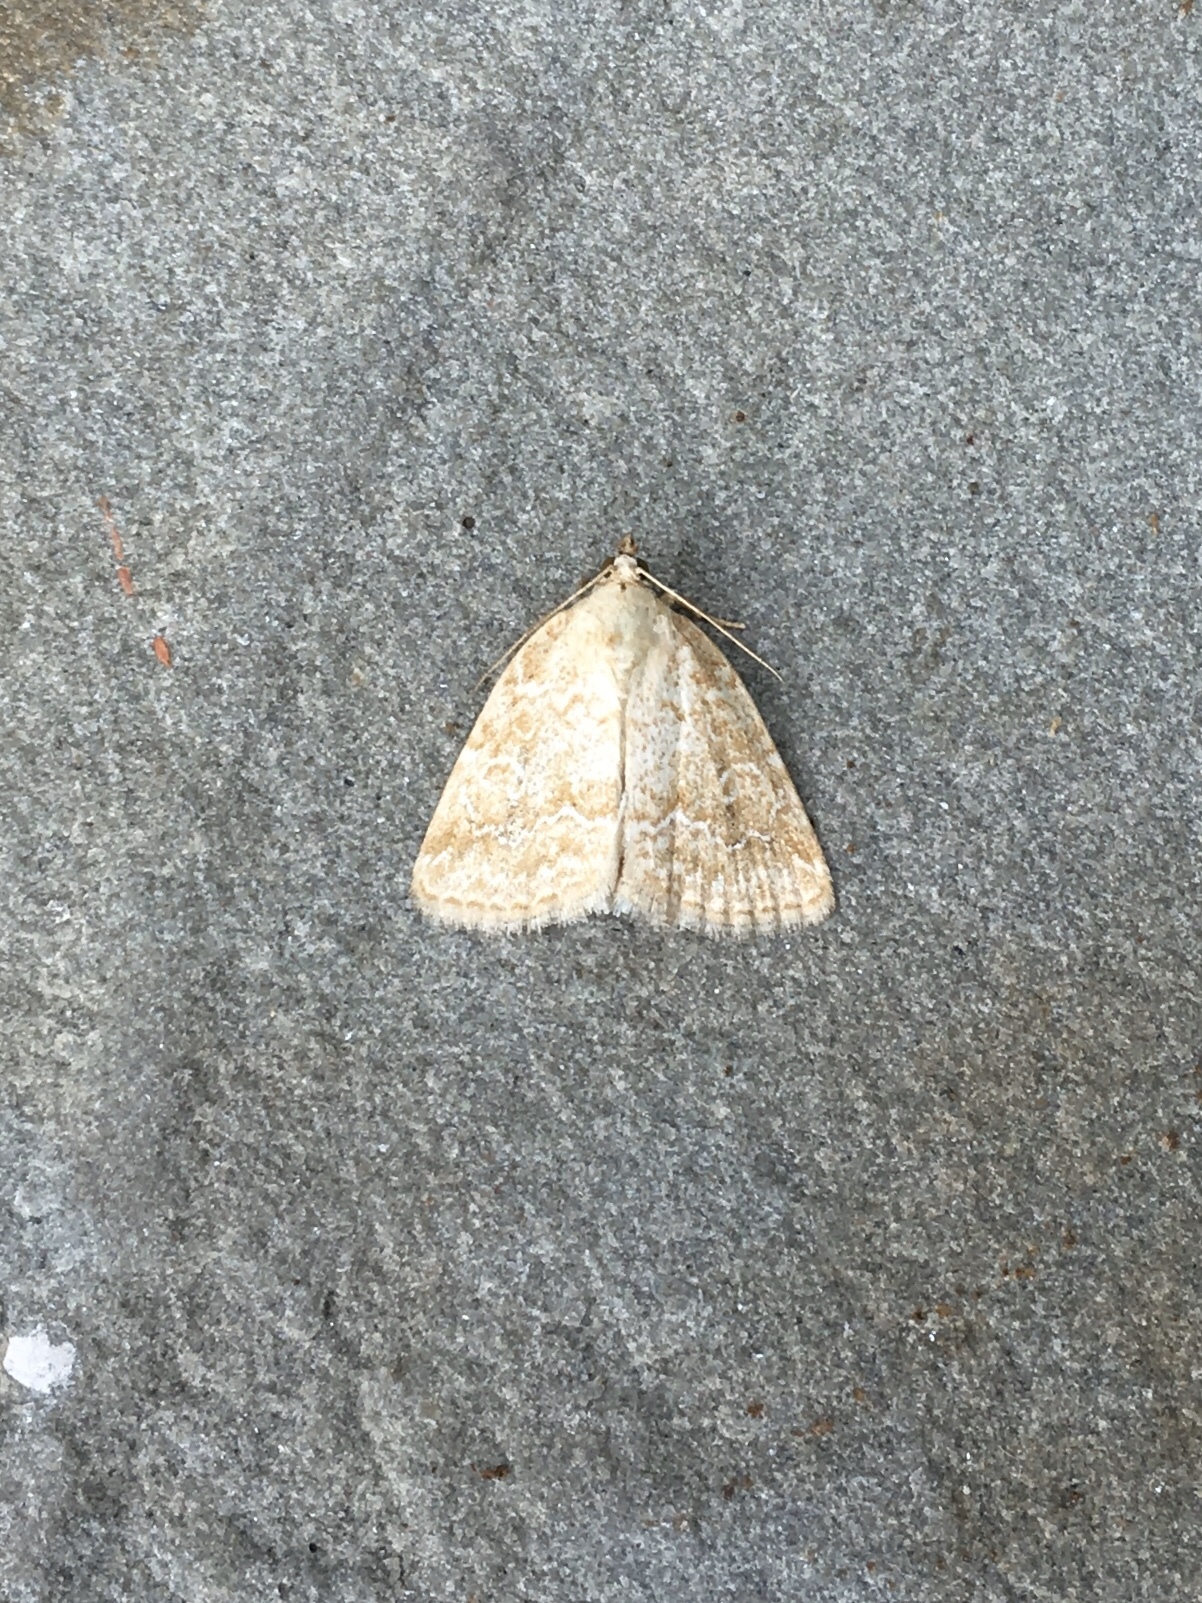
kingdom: Animalia
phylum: Arthropoda
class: Insecta
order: Lepidoptera
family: Noctuidae
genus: Protodeltote
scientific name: Protodeltote albidula
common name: Pale glyph
